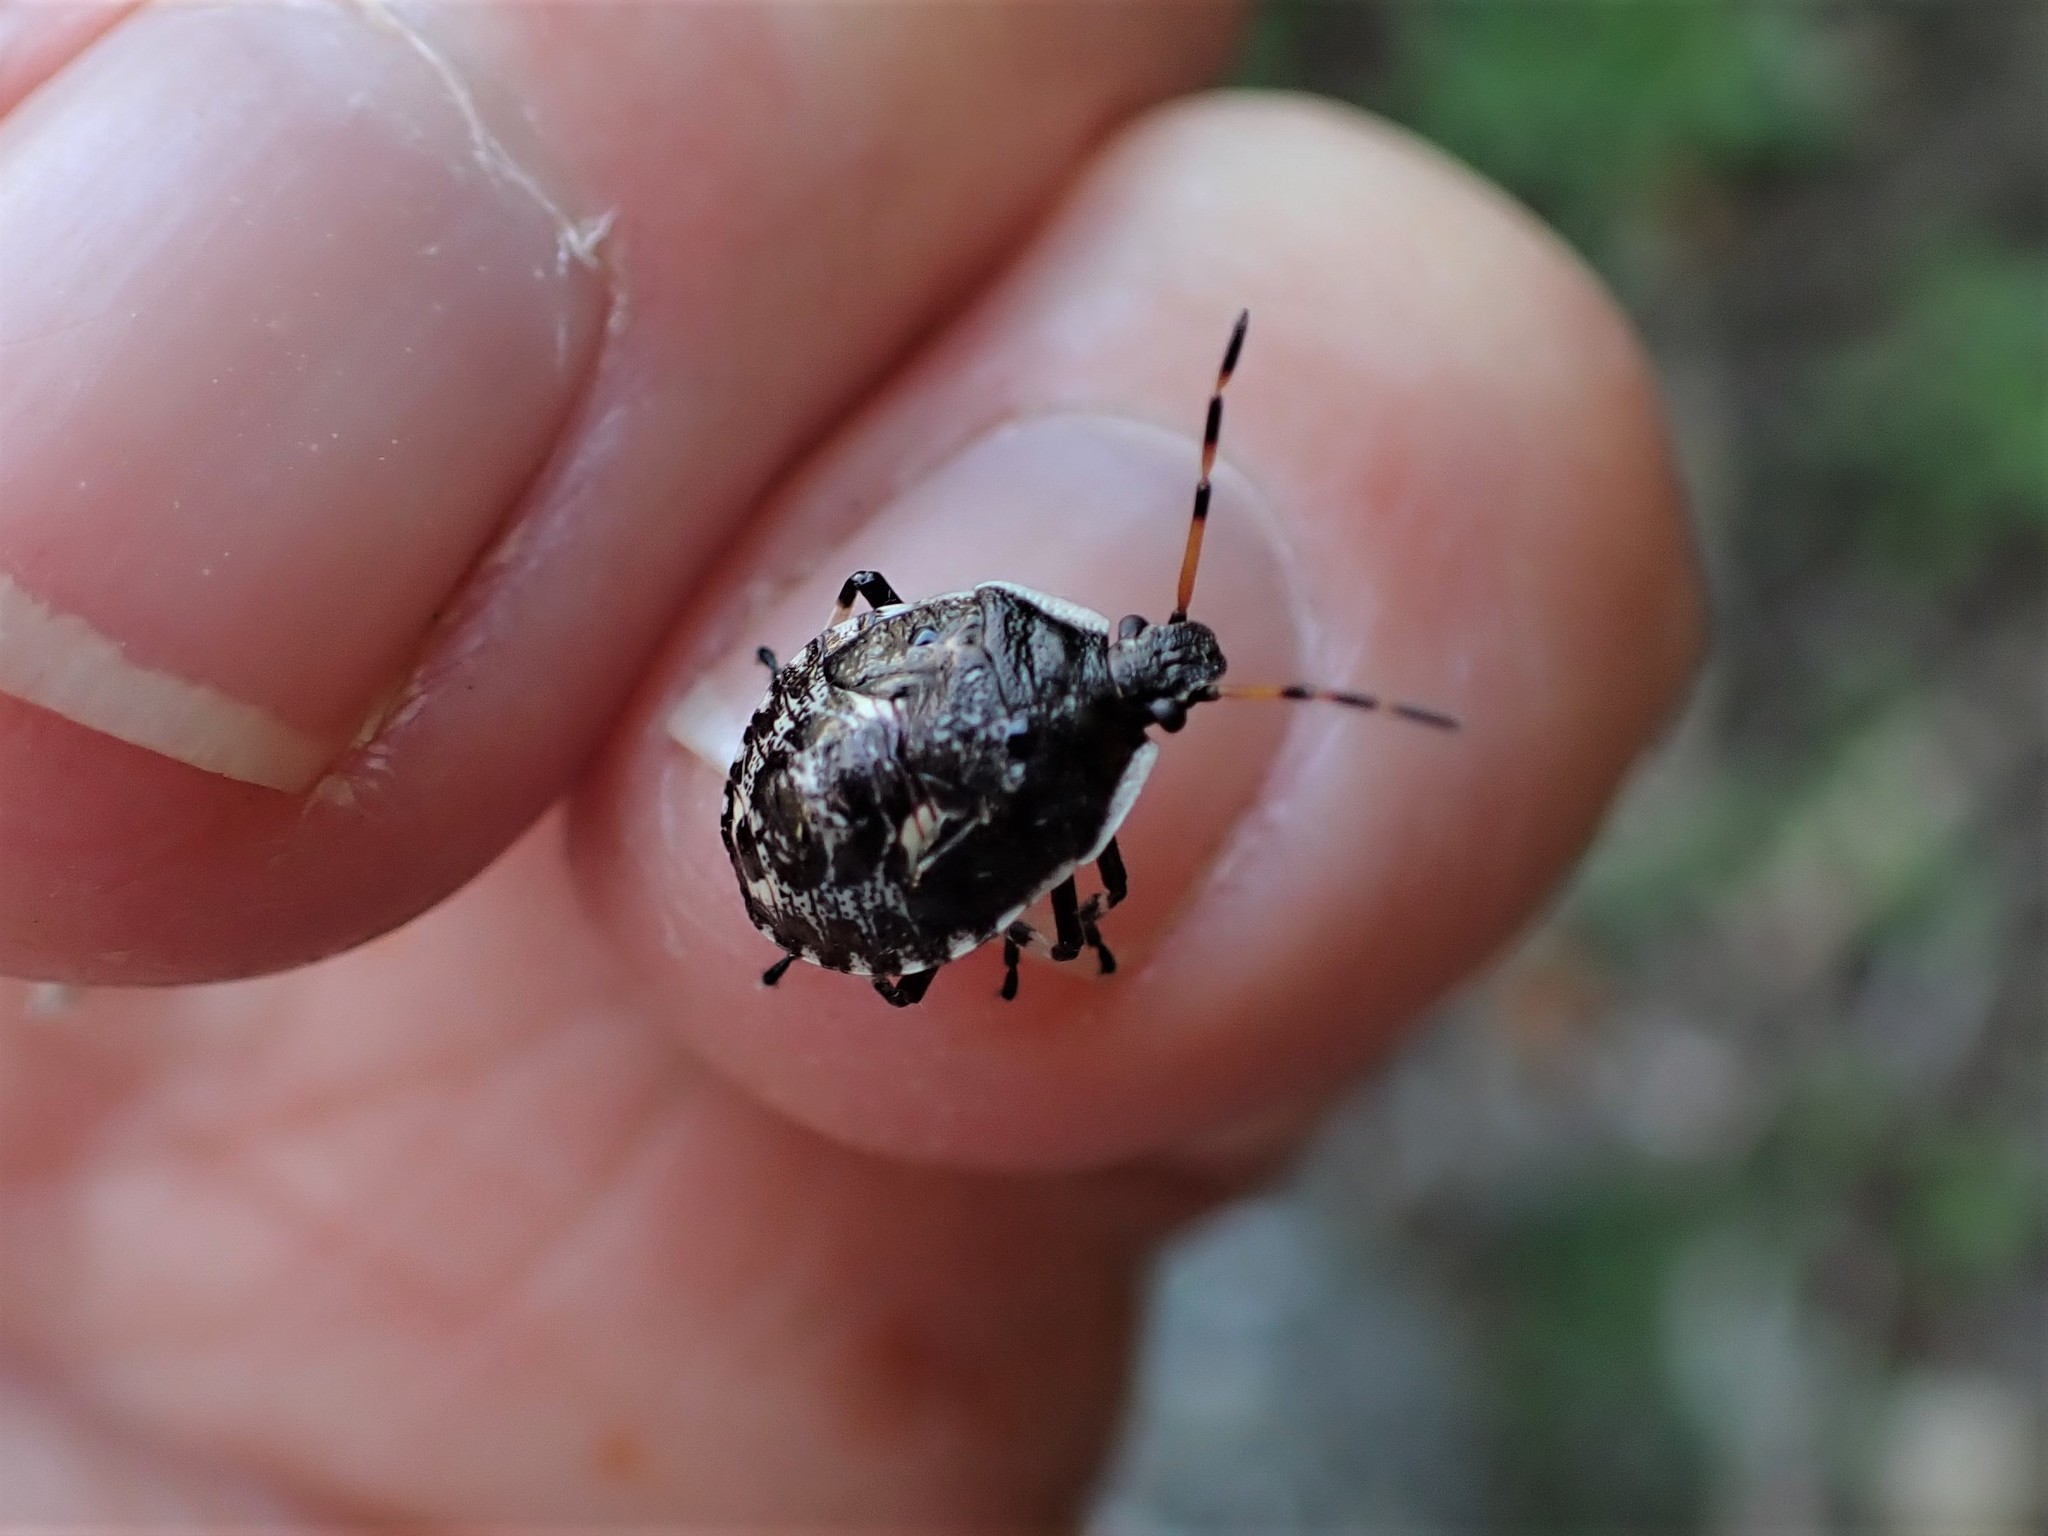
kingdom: Animalia
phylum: Arthropoda
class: Insecta
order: Hemiptera
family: Pentatomidae
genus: Cermatulus
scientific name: Cermatulus nasalis
